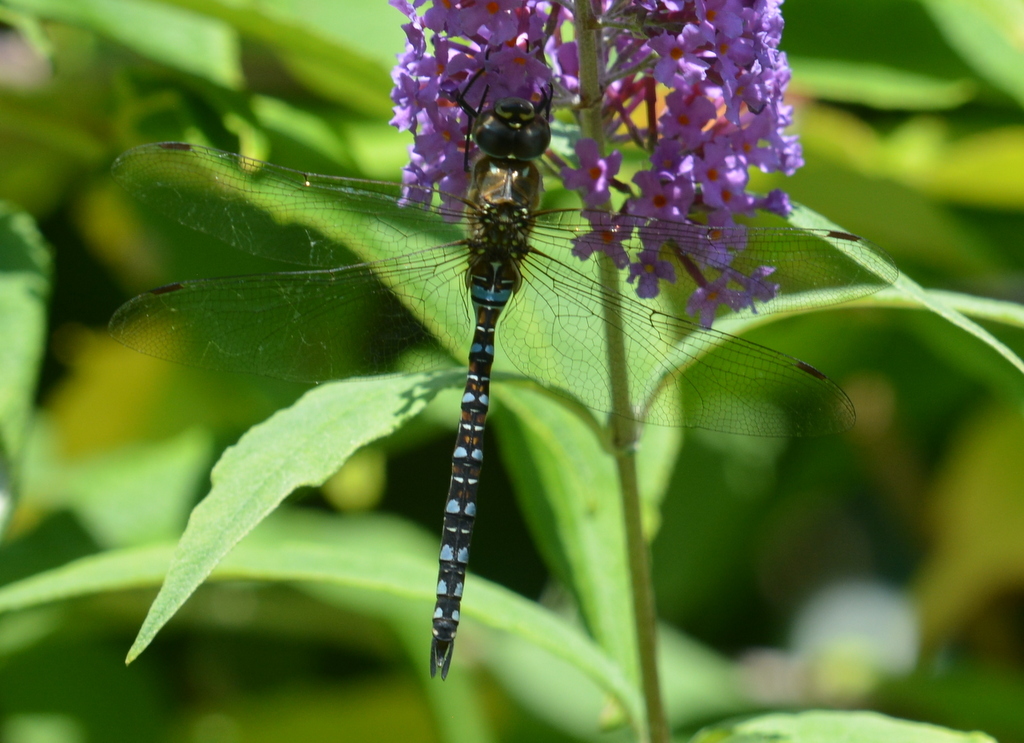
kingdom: Animalia
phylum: Arthropoda
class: Insecta
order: Odonata
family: Aeshnidae
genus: Aeshna
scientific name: Aeshna mixta
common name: Migrant hawker
